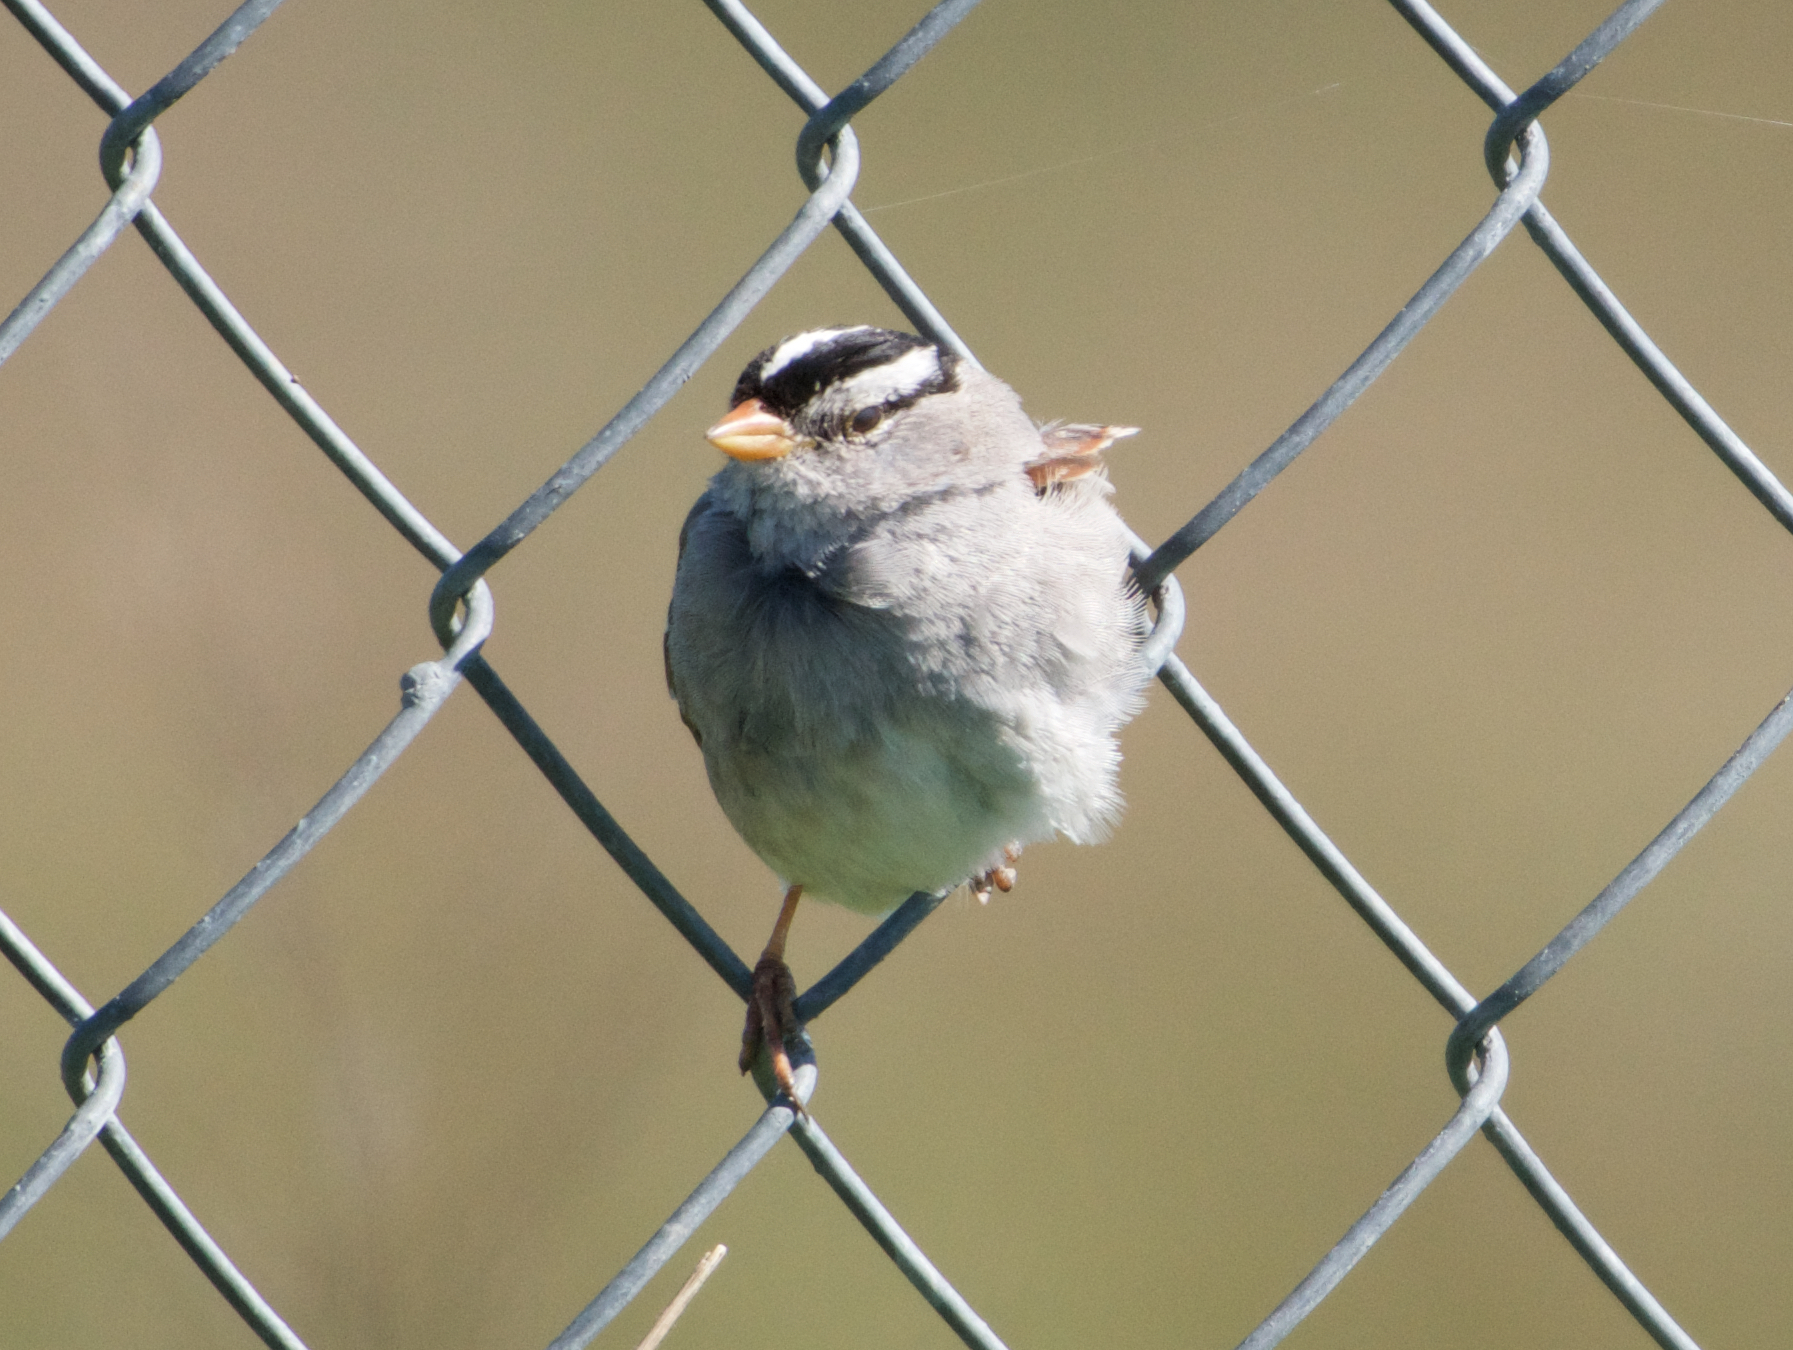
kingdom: Animalia
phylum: Chordata
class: Aves
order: Passeriformes
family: Passerellidae
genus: Zonotrichia
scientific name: Zonotrichia leucophrys
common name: White-crowned sparrow
